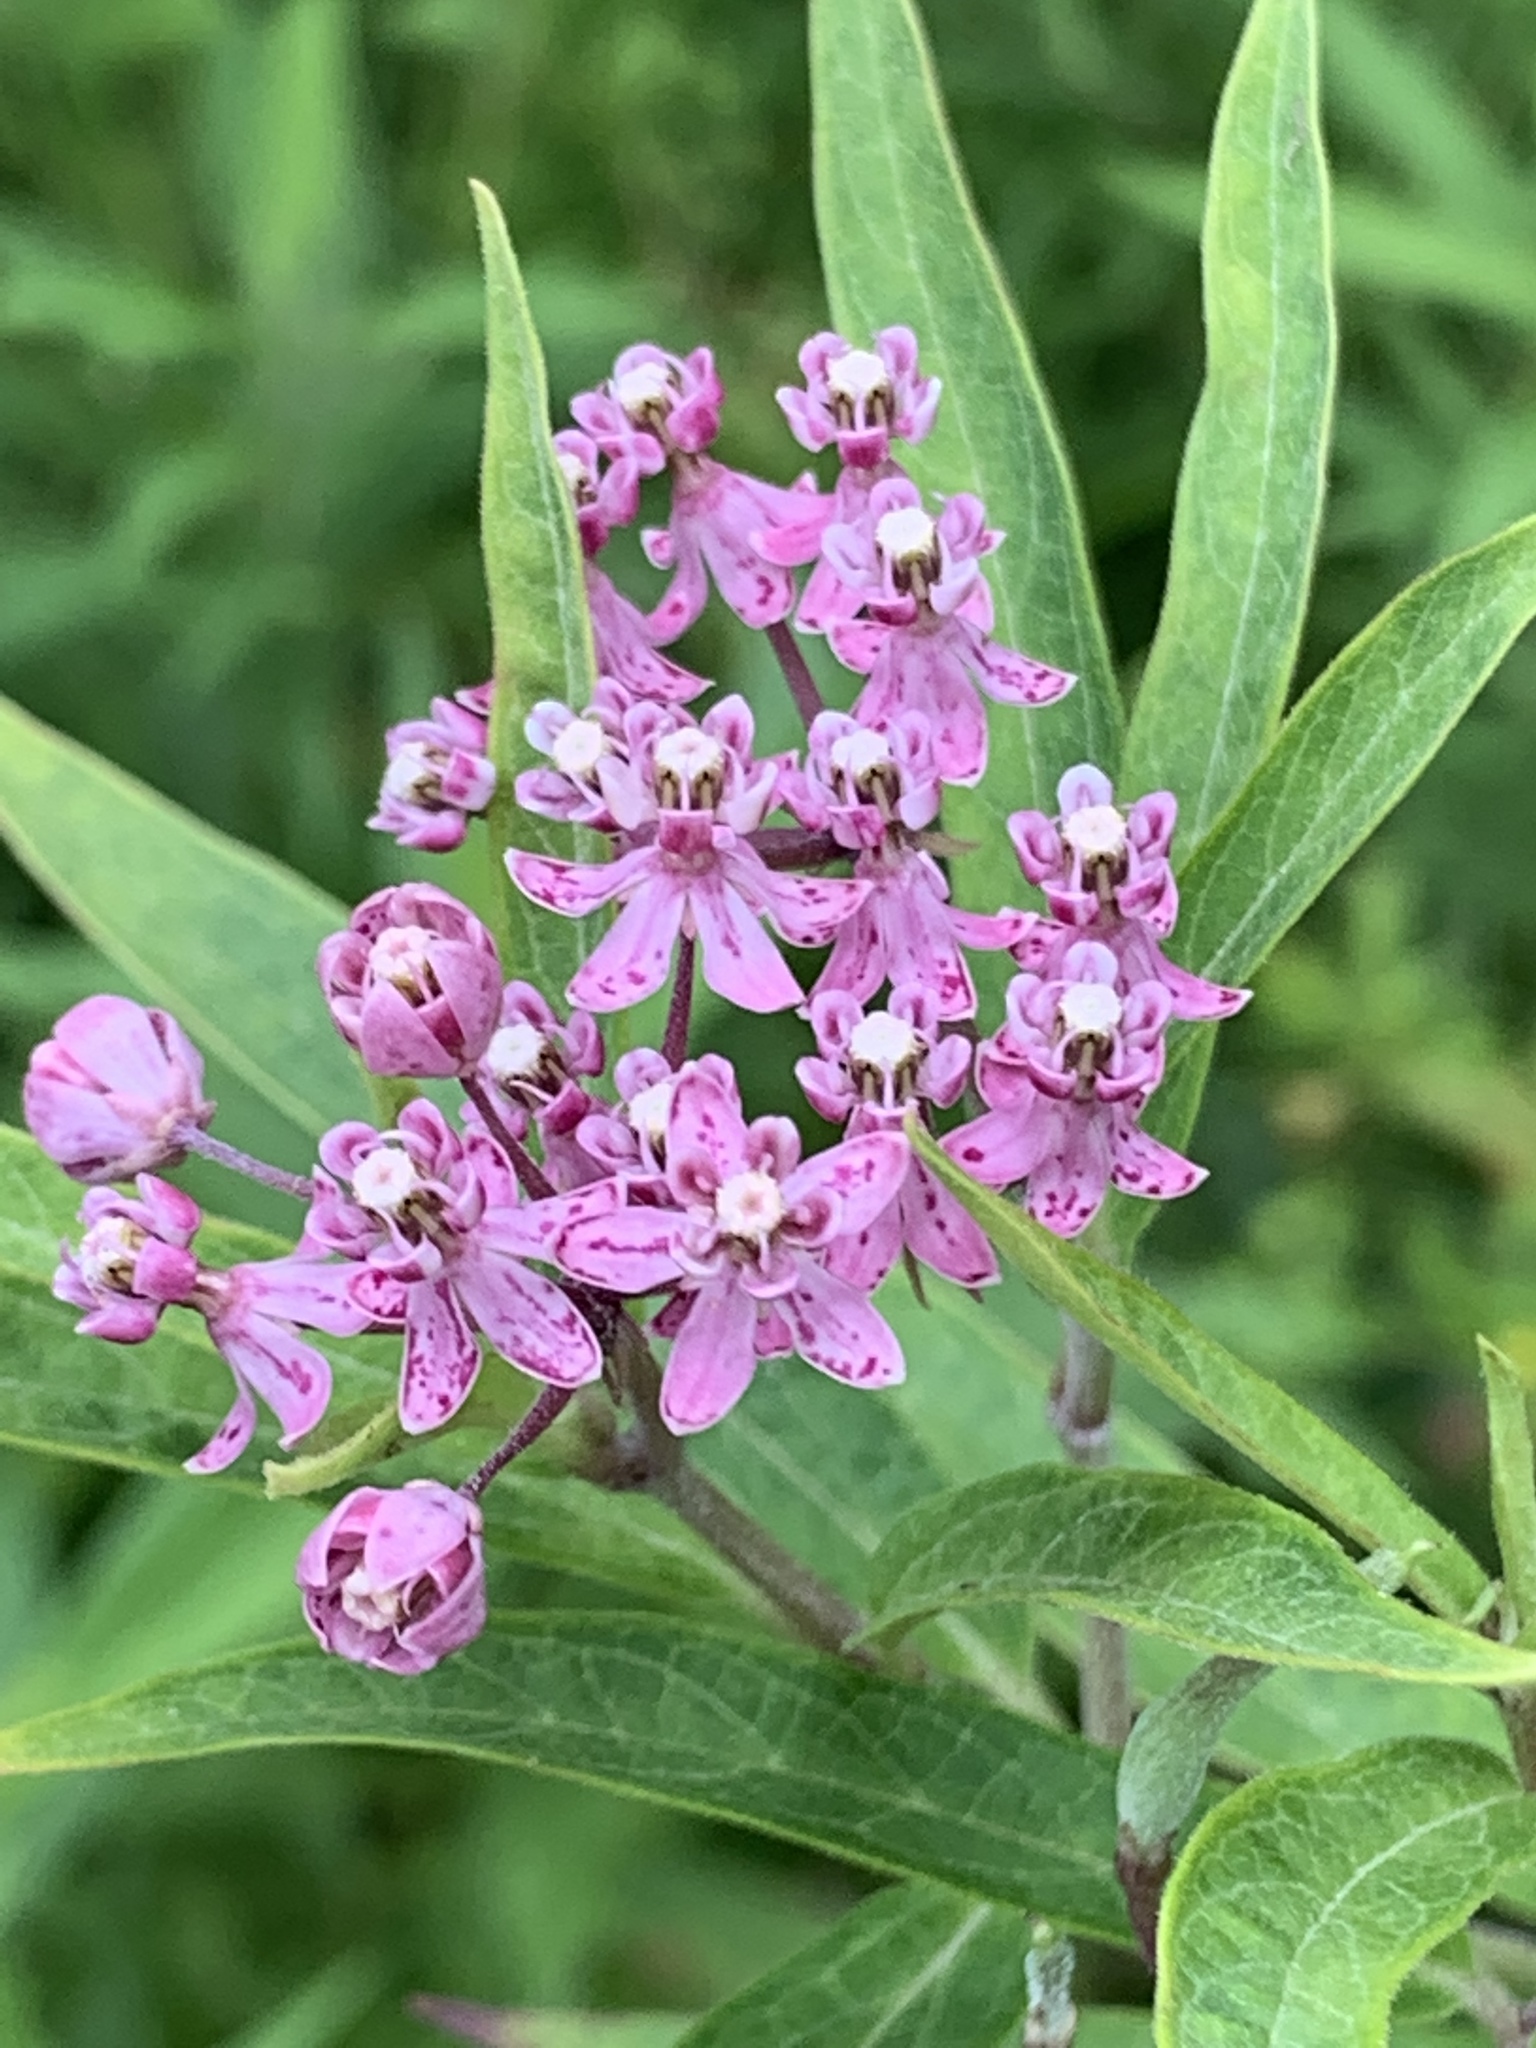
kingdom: Plantae
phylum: Tracheophyta
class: Magnoliopsida
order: Gentianales
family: Apocynaceae
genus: Asclepias
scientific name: Asclepias incarnata
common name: Swamp milkweed
